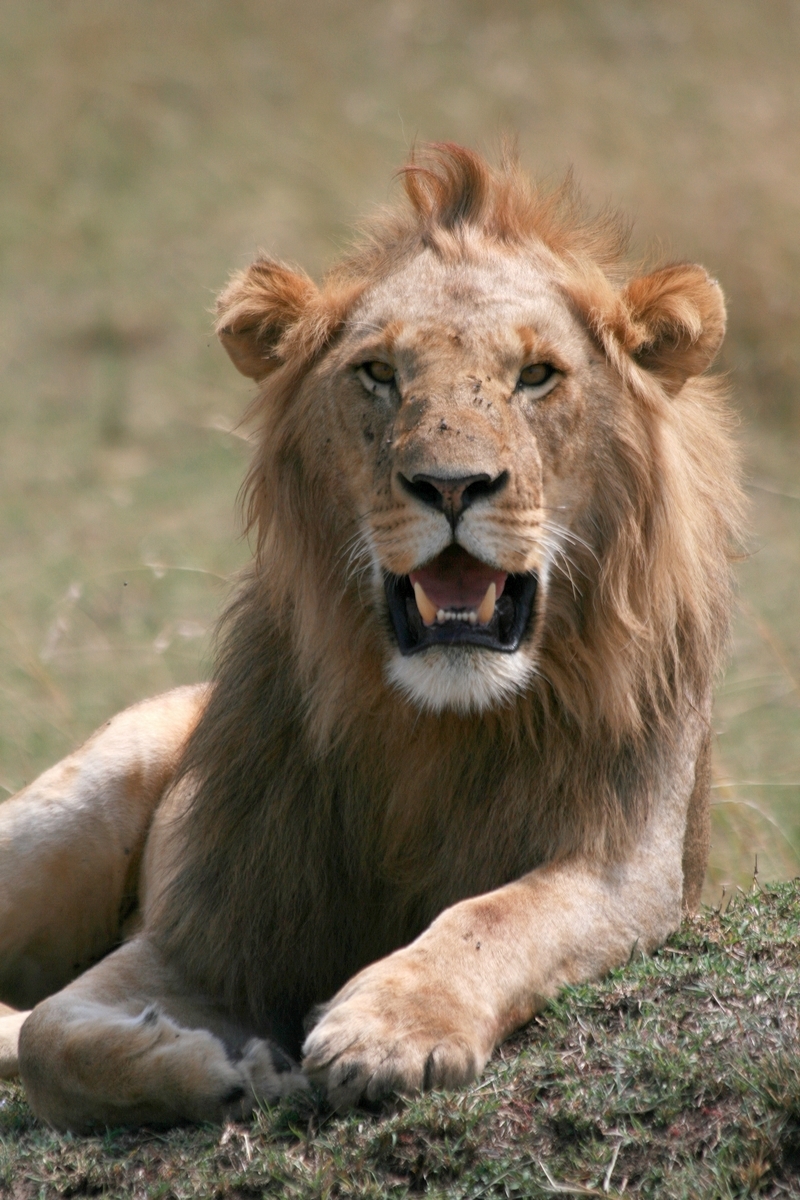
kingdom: Animalia
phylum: Chordata
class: Mammalia
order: Carnivora
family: Felidae
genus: Panthera
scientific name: Panthera leo
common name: Lion
